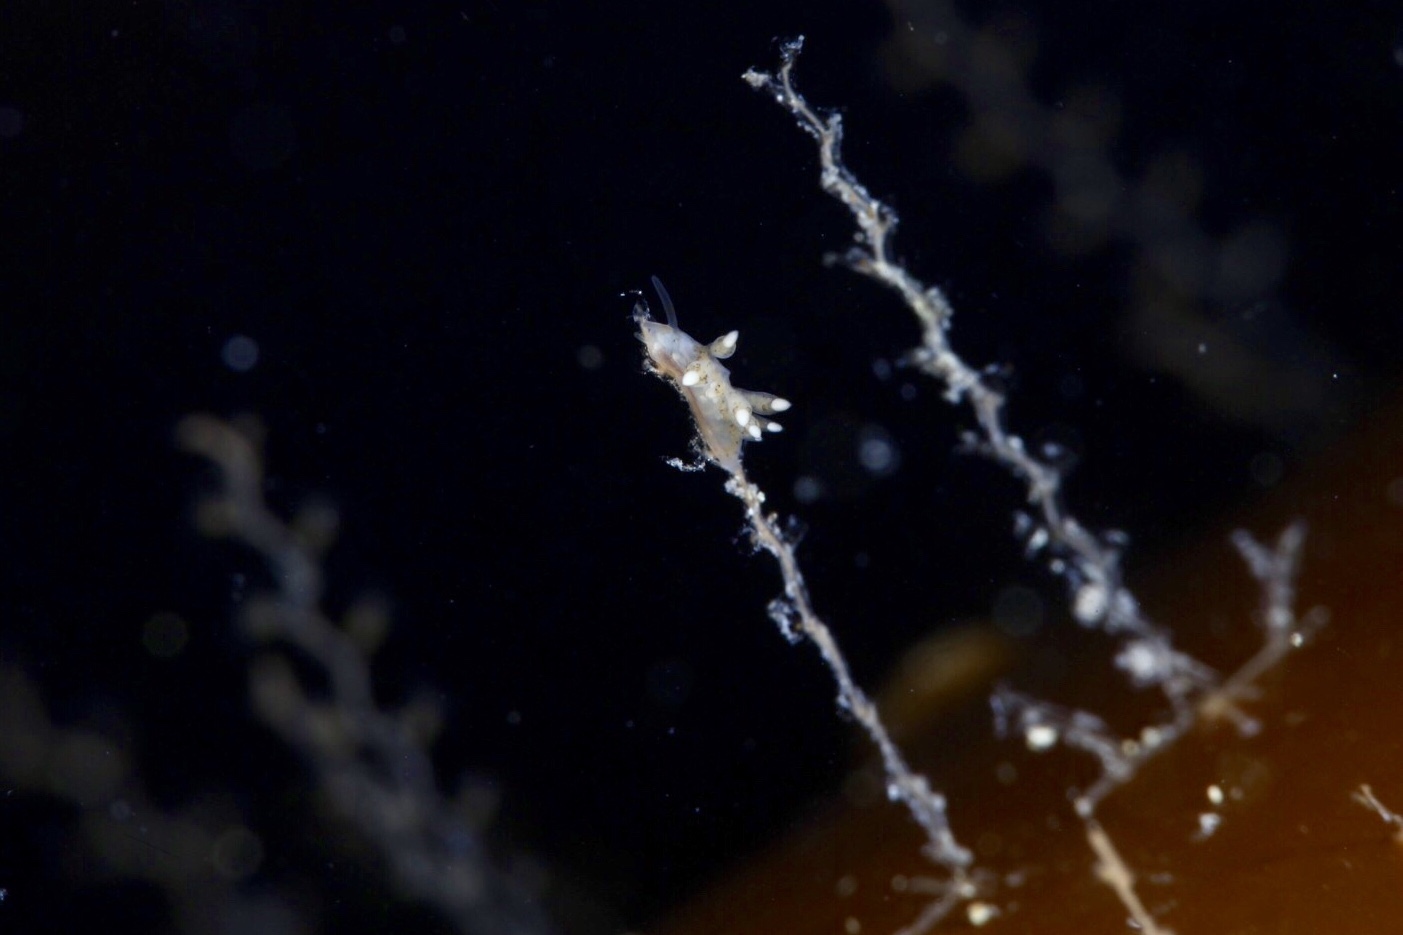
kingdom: Animalia
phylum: Mollusca
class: Gastropoda
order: Nudibranchia
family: Tergipedidae
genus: Tergipes
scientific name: Tergipes tergipes
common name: Johnston's balloon eolis
